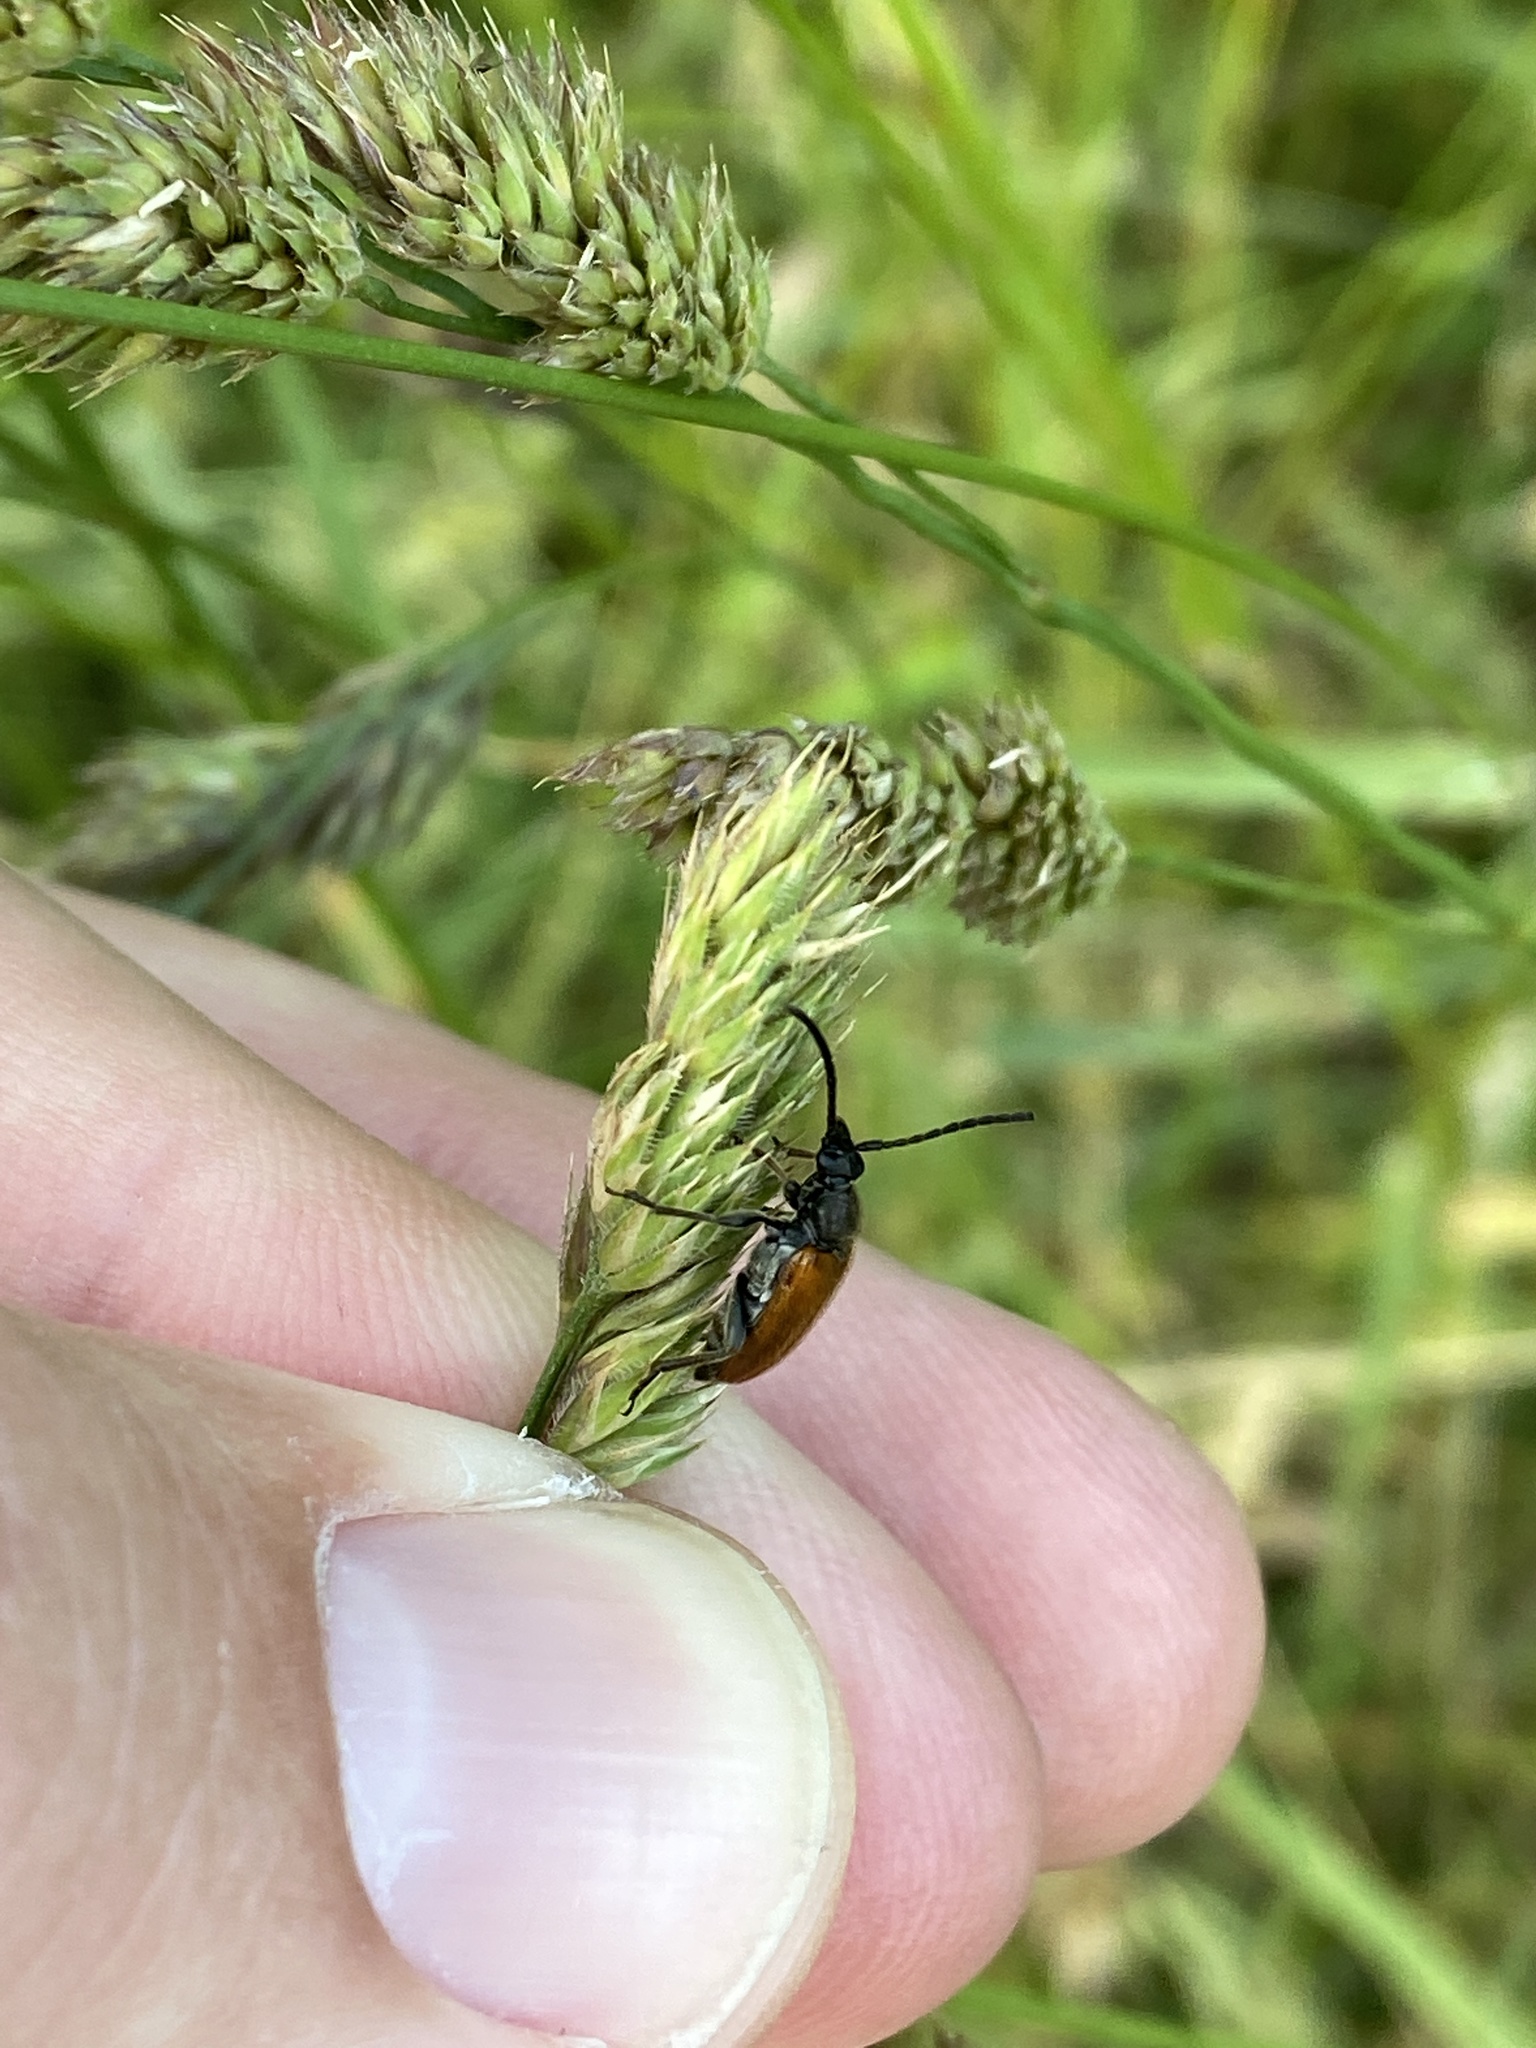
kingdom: Animalia
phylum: Arthropoda
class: Insecta
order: Coleoptera
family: Cerambycidae
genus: Pseudovadonia
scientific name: Pseudovadonia livida
